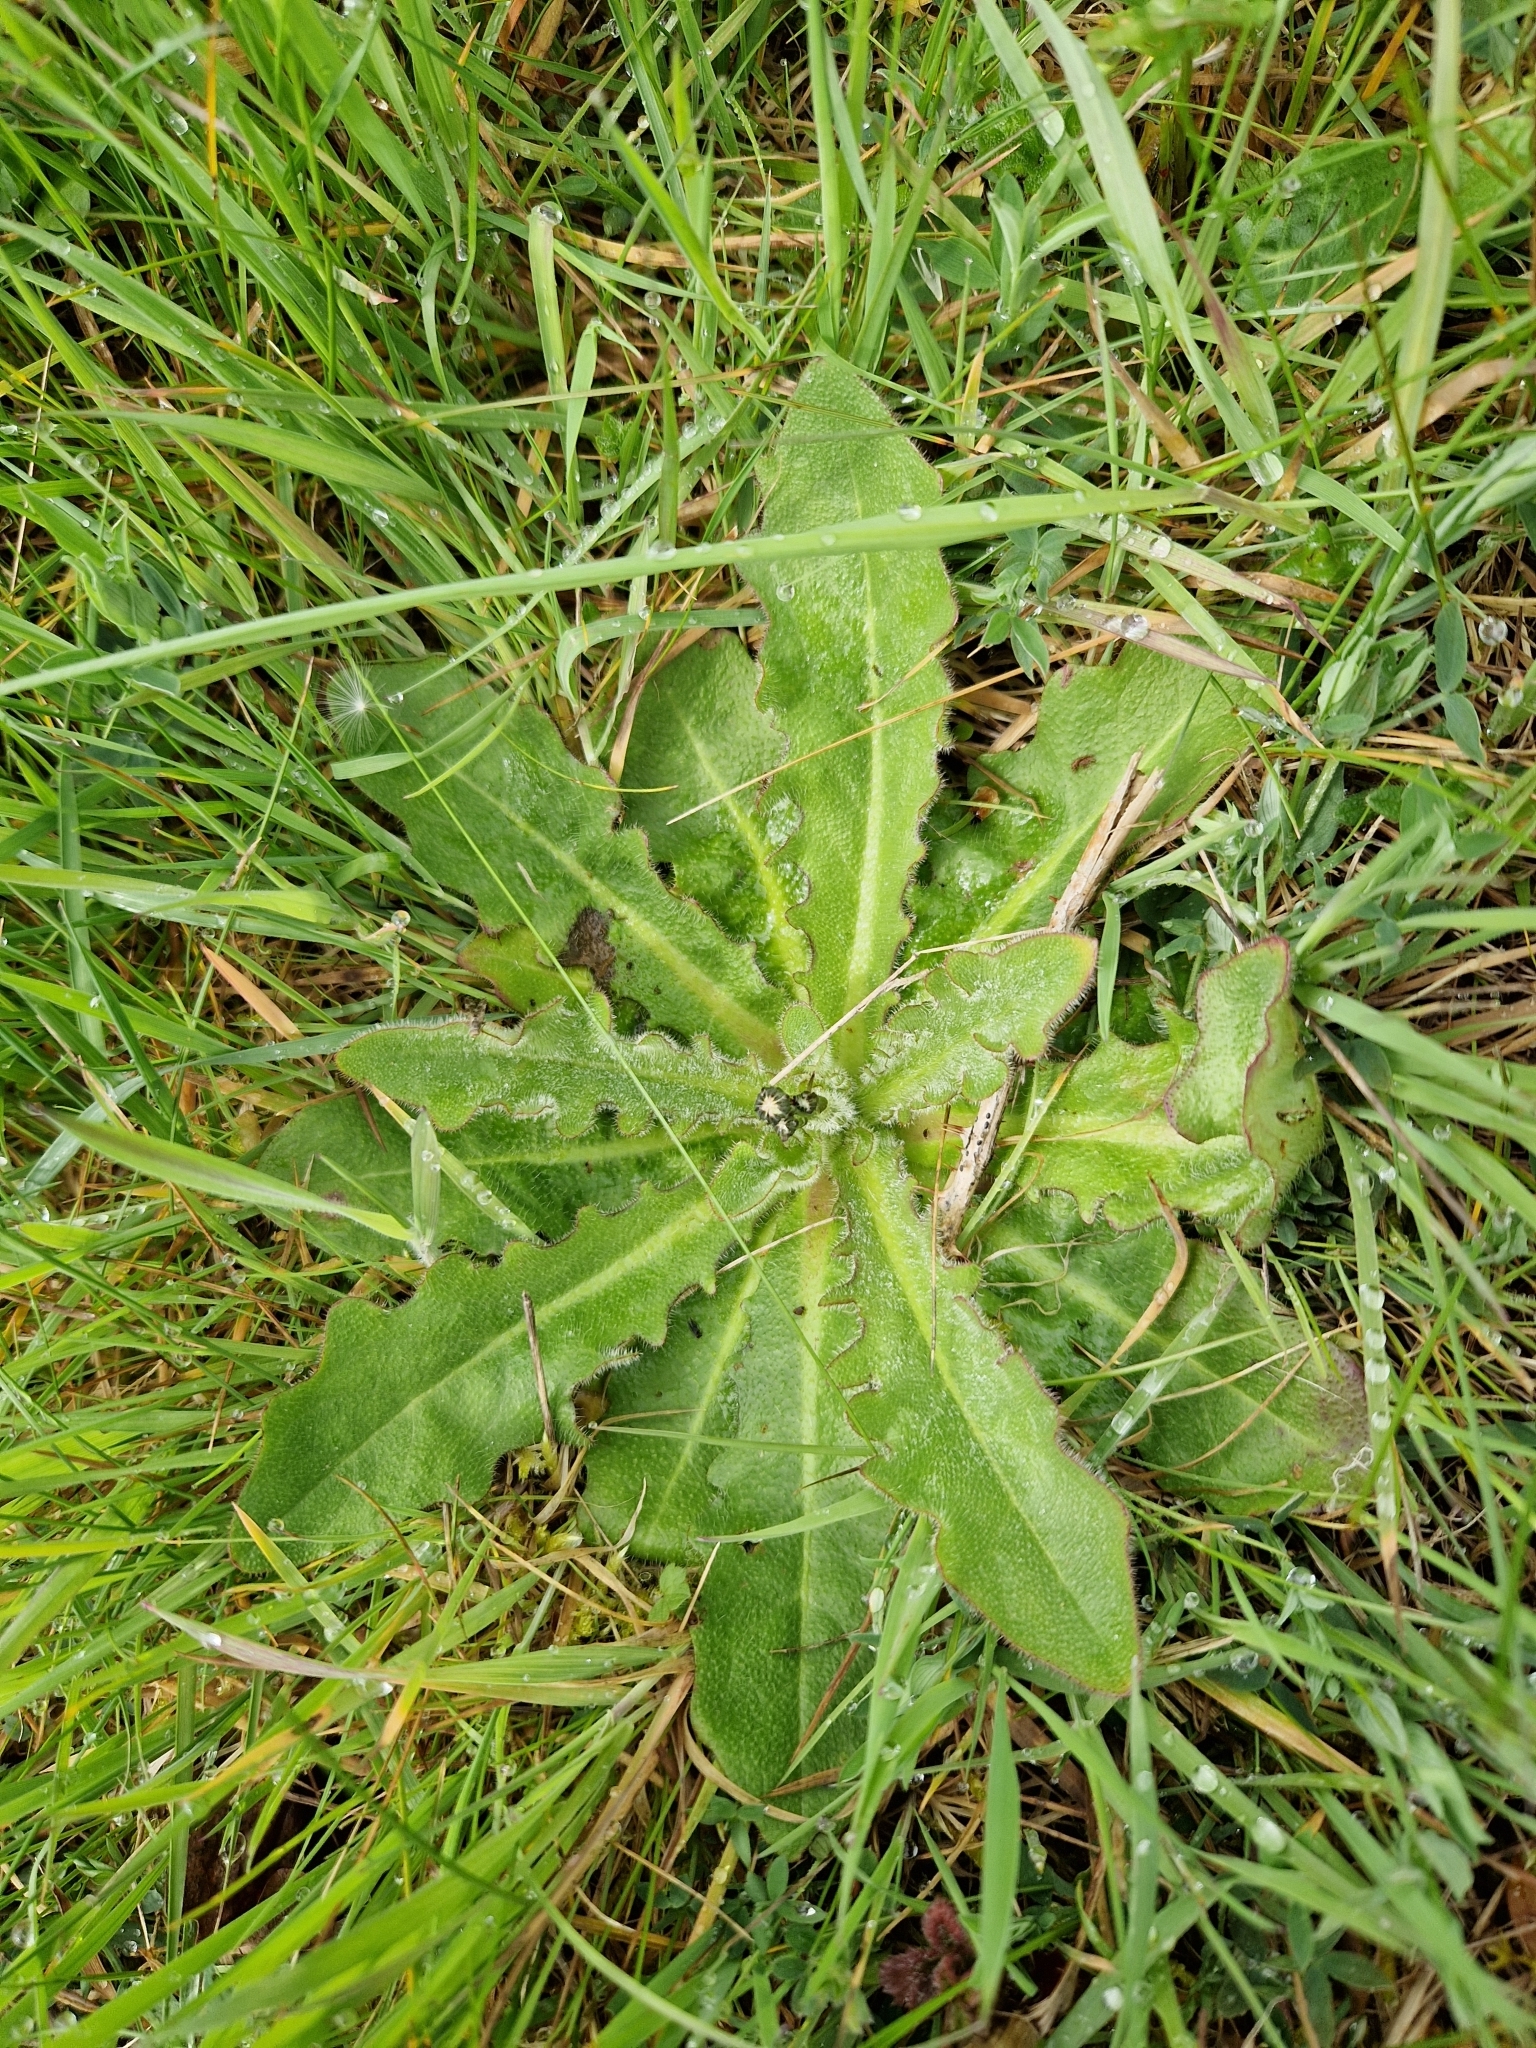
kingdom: Plantae
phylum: Tracheophyta
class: Magnoliopsida
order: Asterales
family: Asteraceae
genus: Hypochaeris
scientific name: Hypochaeris radicata
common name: Flatweed
